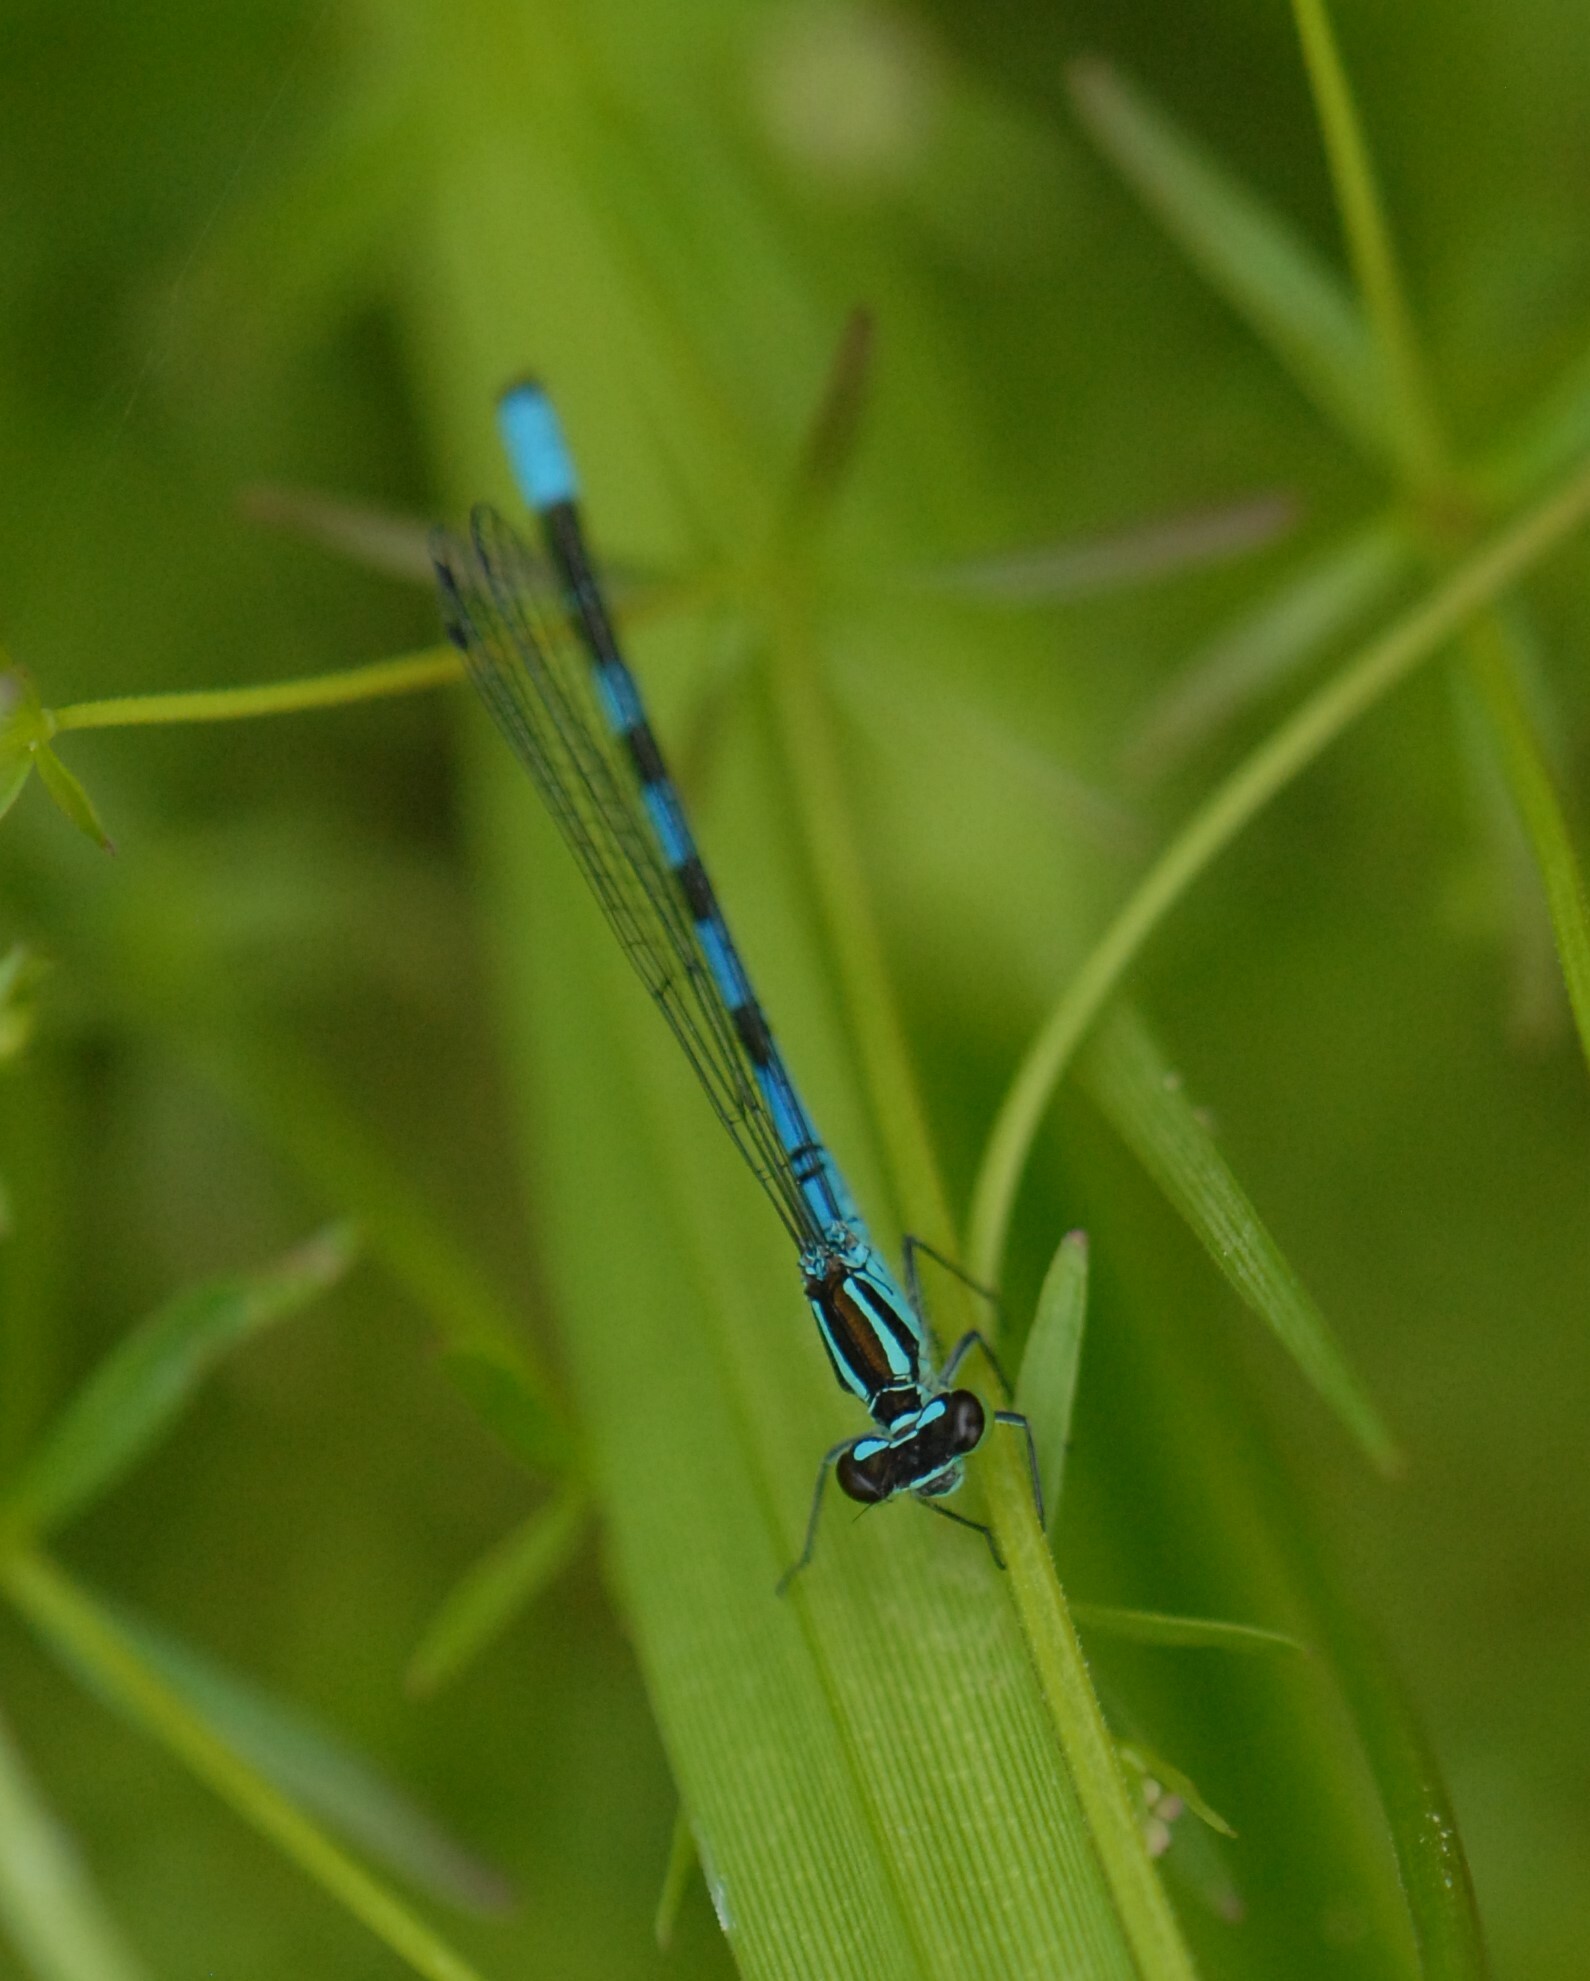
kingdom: Animalia
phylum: Arthropoda
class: Insecta
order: Odonata
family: Coenagrionidae
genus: Coenagrion
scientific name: Coenagrion hastulatum
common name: Spearhead bluet
